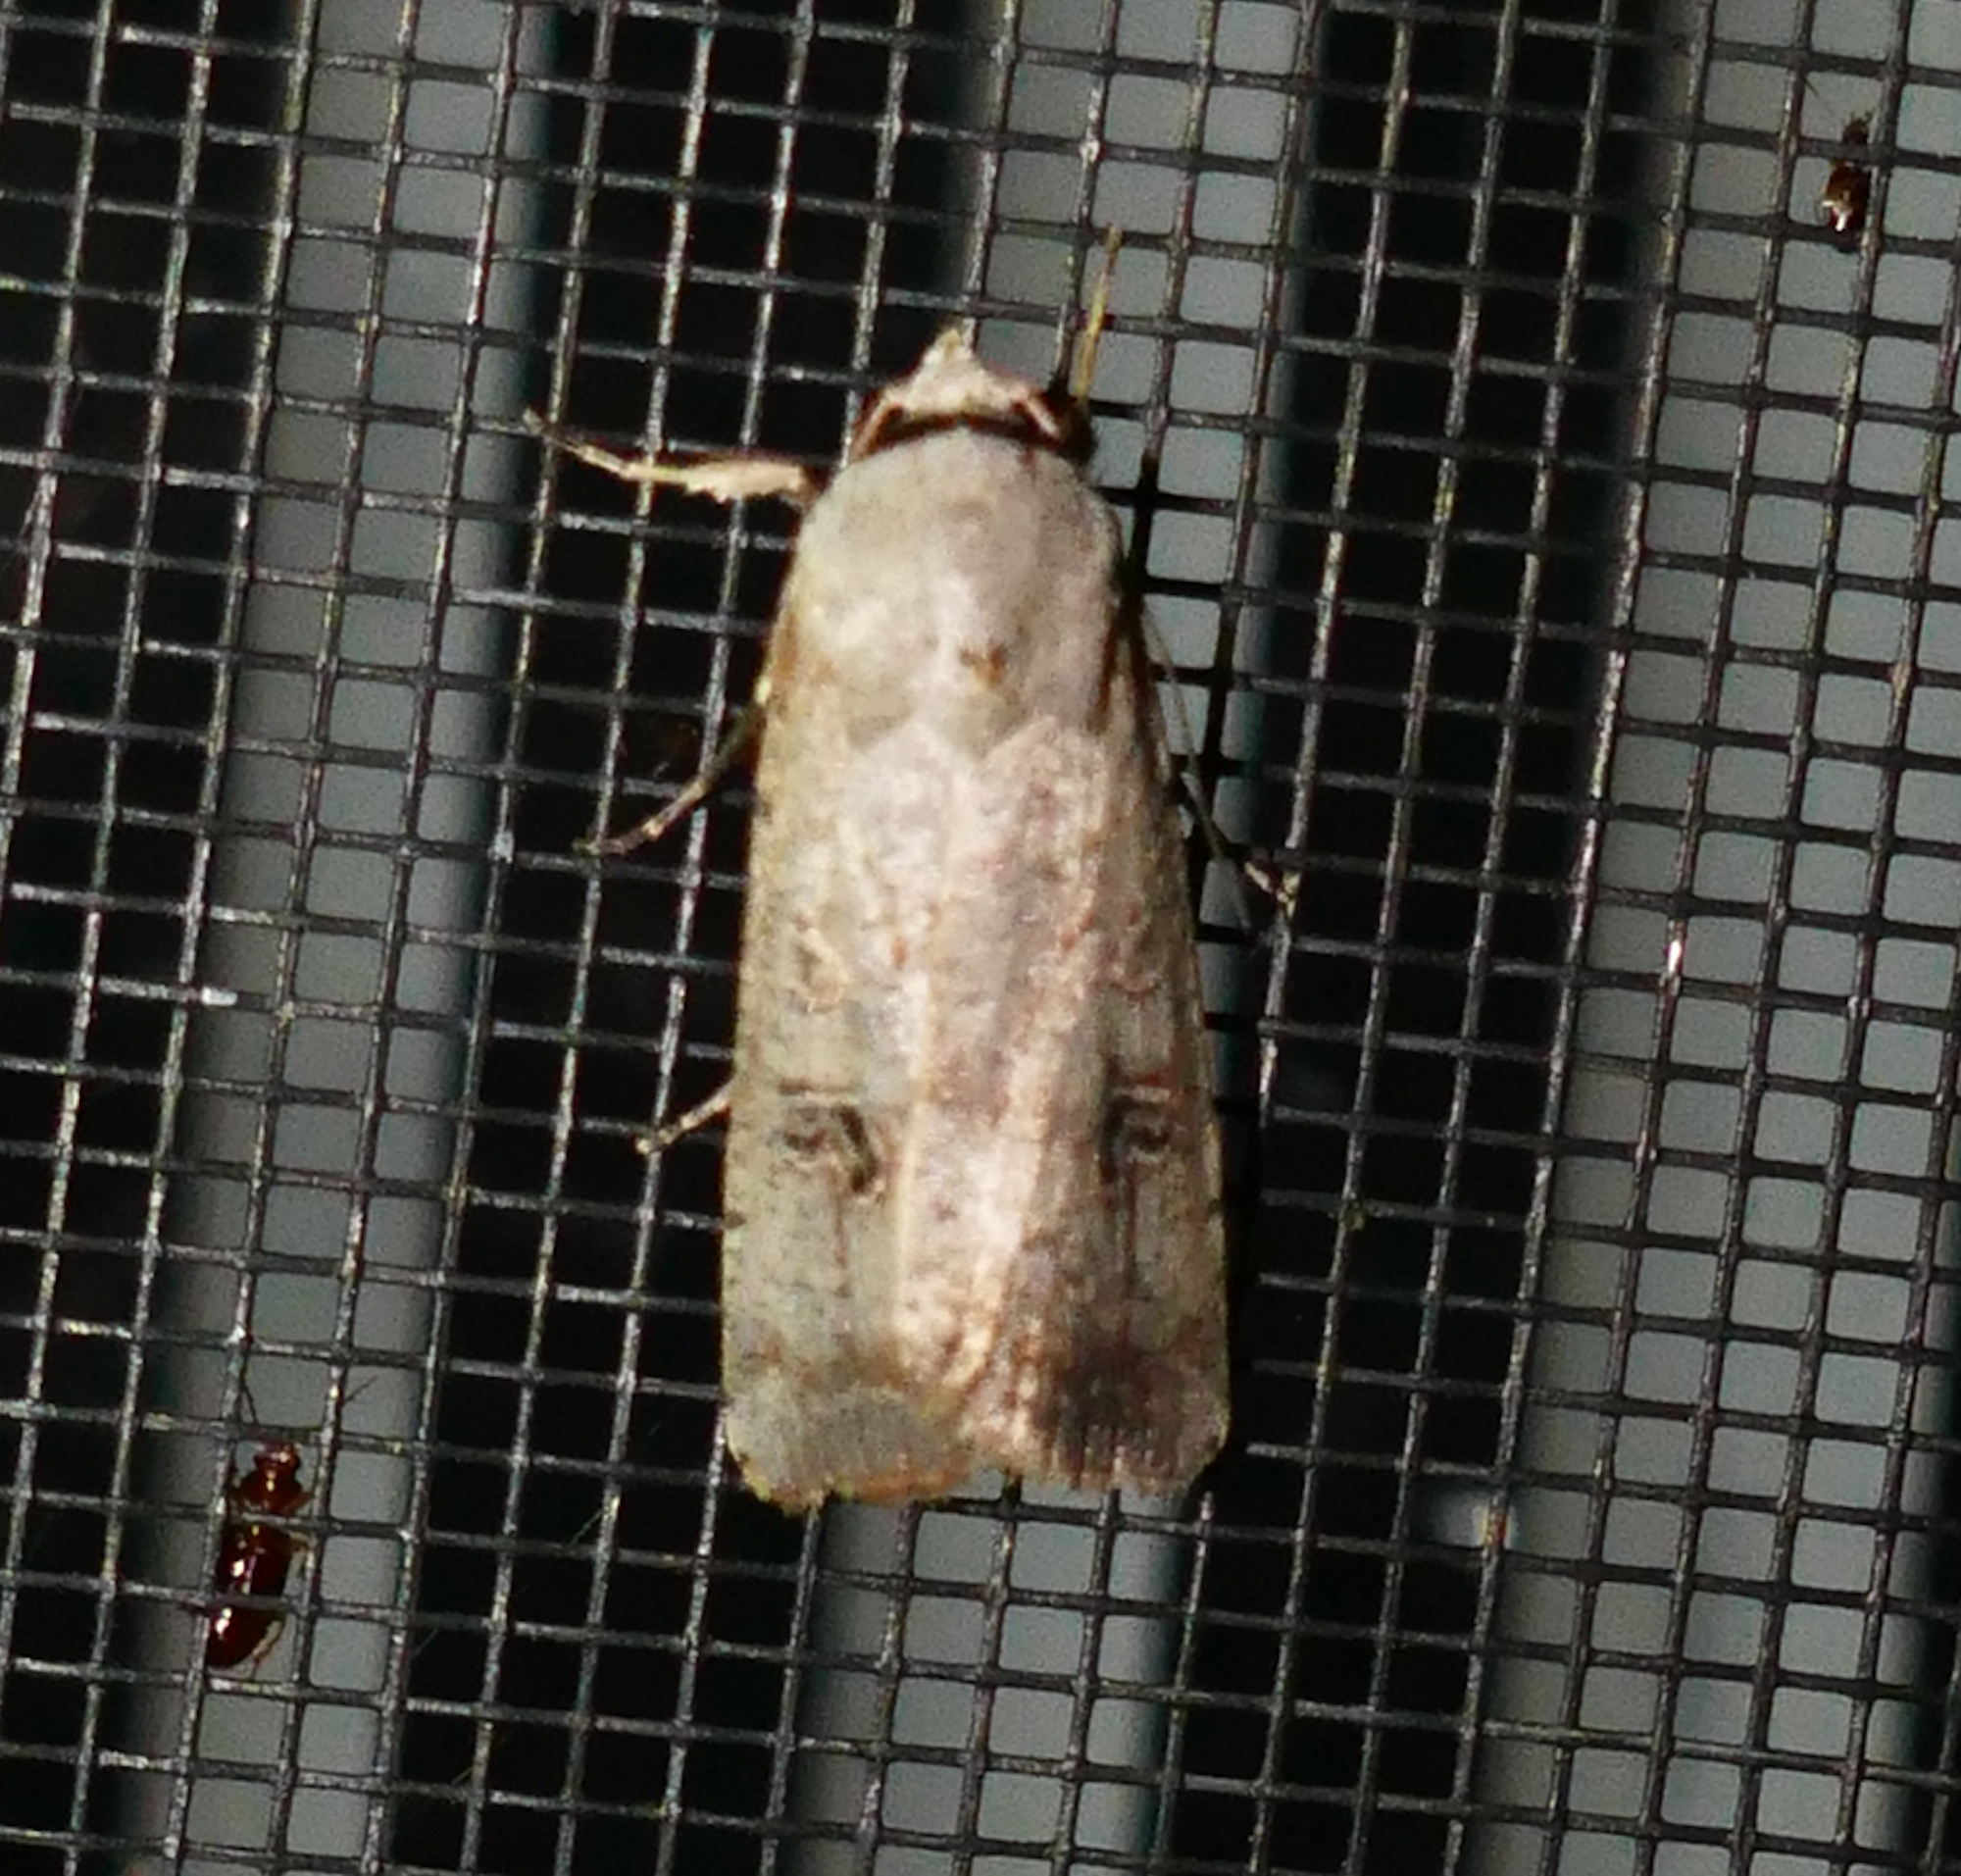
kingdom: Animalia
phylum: Arthropoda
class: Insecta
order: Lepidoptera
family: Noctuidae
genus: Anicla
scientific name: Anicla infecta
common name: Green cutworm
